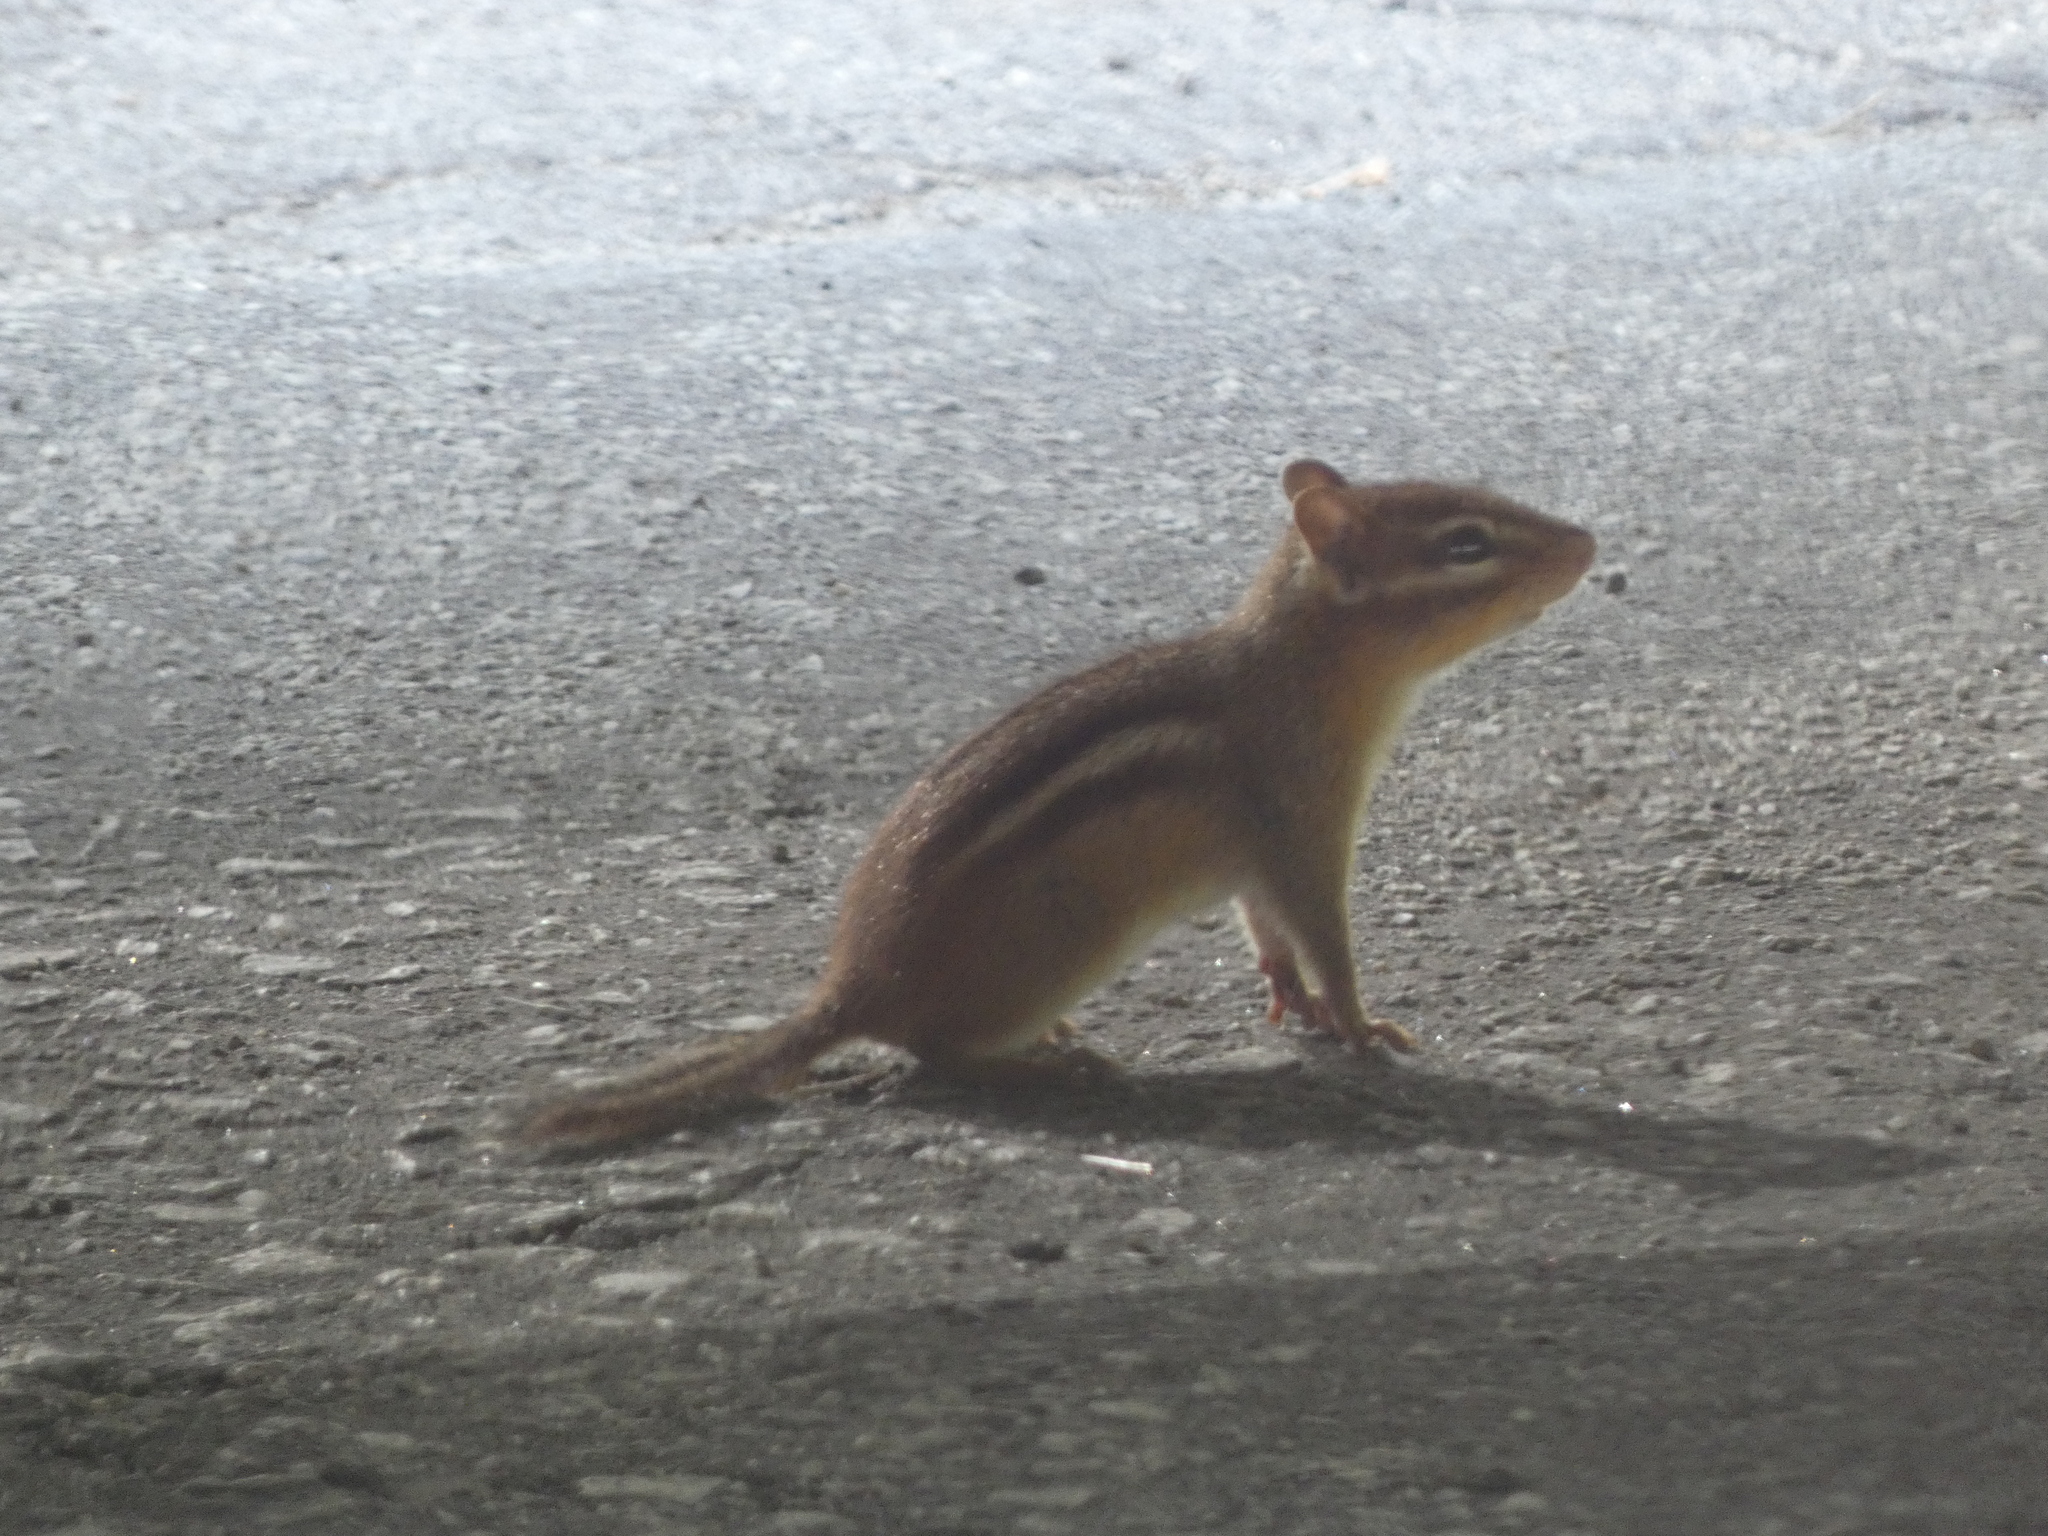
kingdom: Animalia
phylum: Chordata
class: Mammalia
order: Rodentia
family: Sciuridae
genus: Tamias
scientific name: Tamias striatus
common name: Eastern chipmunk
